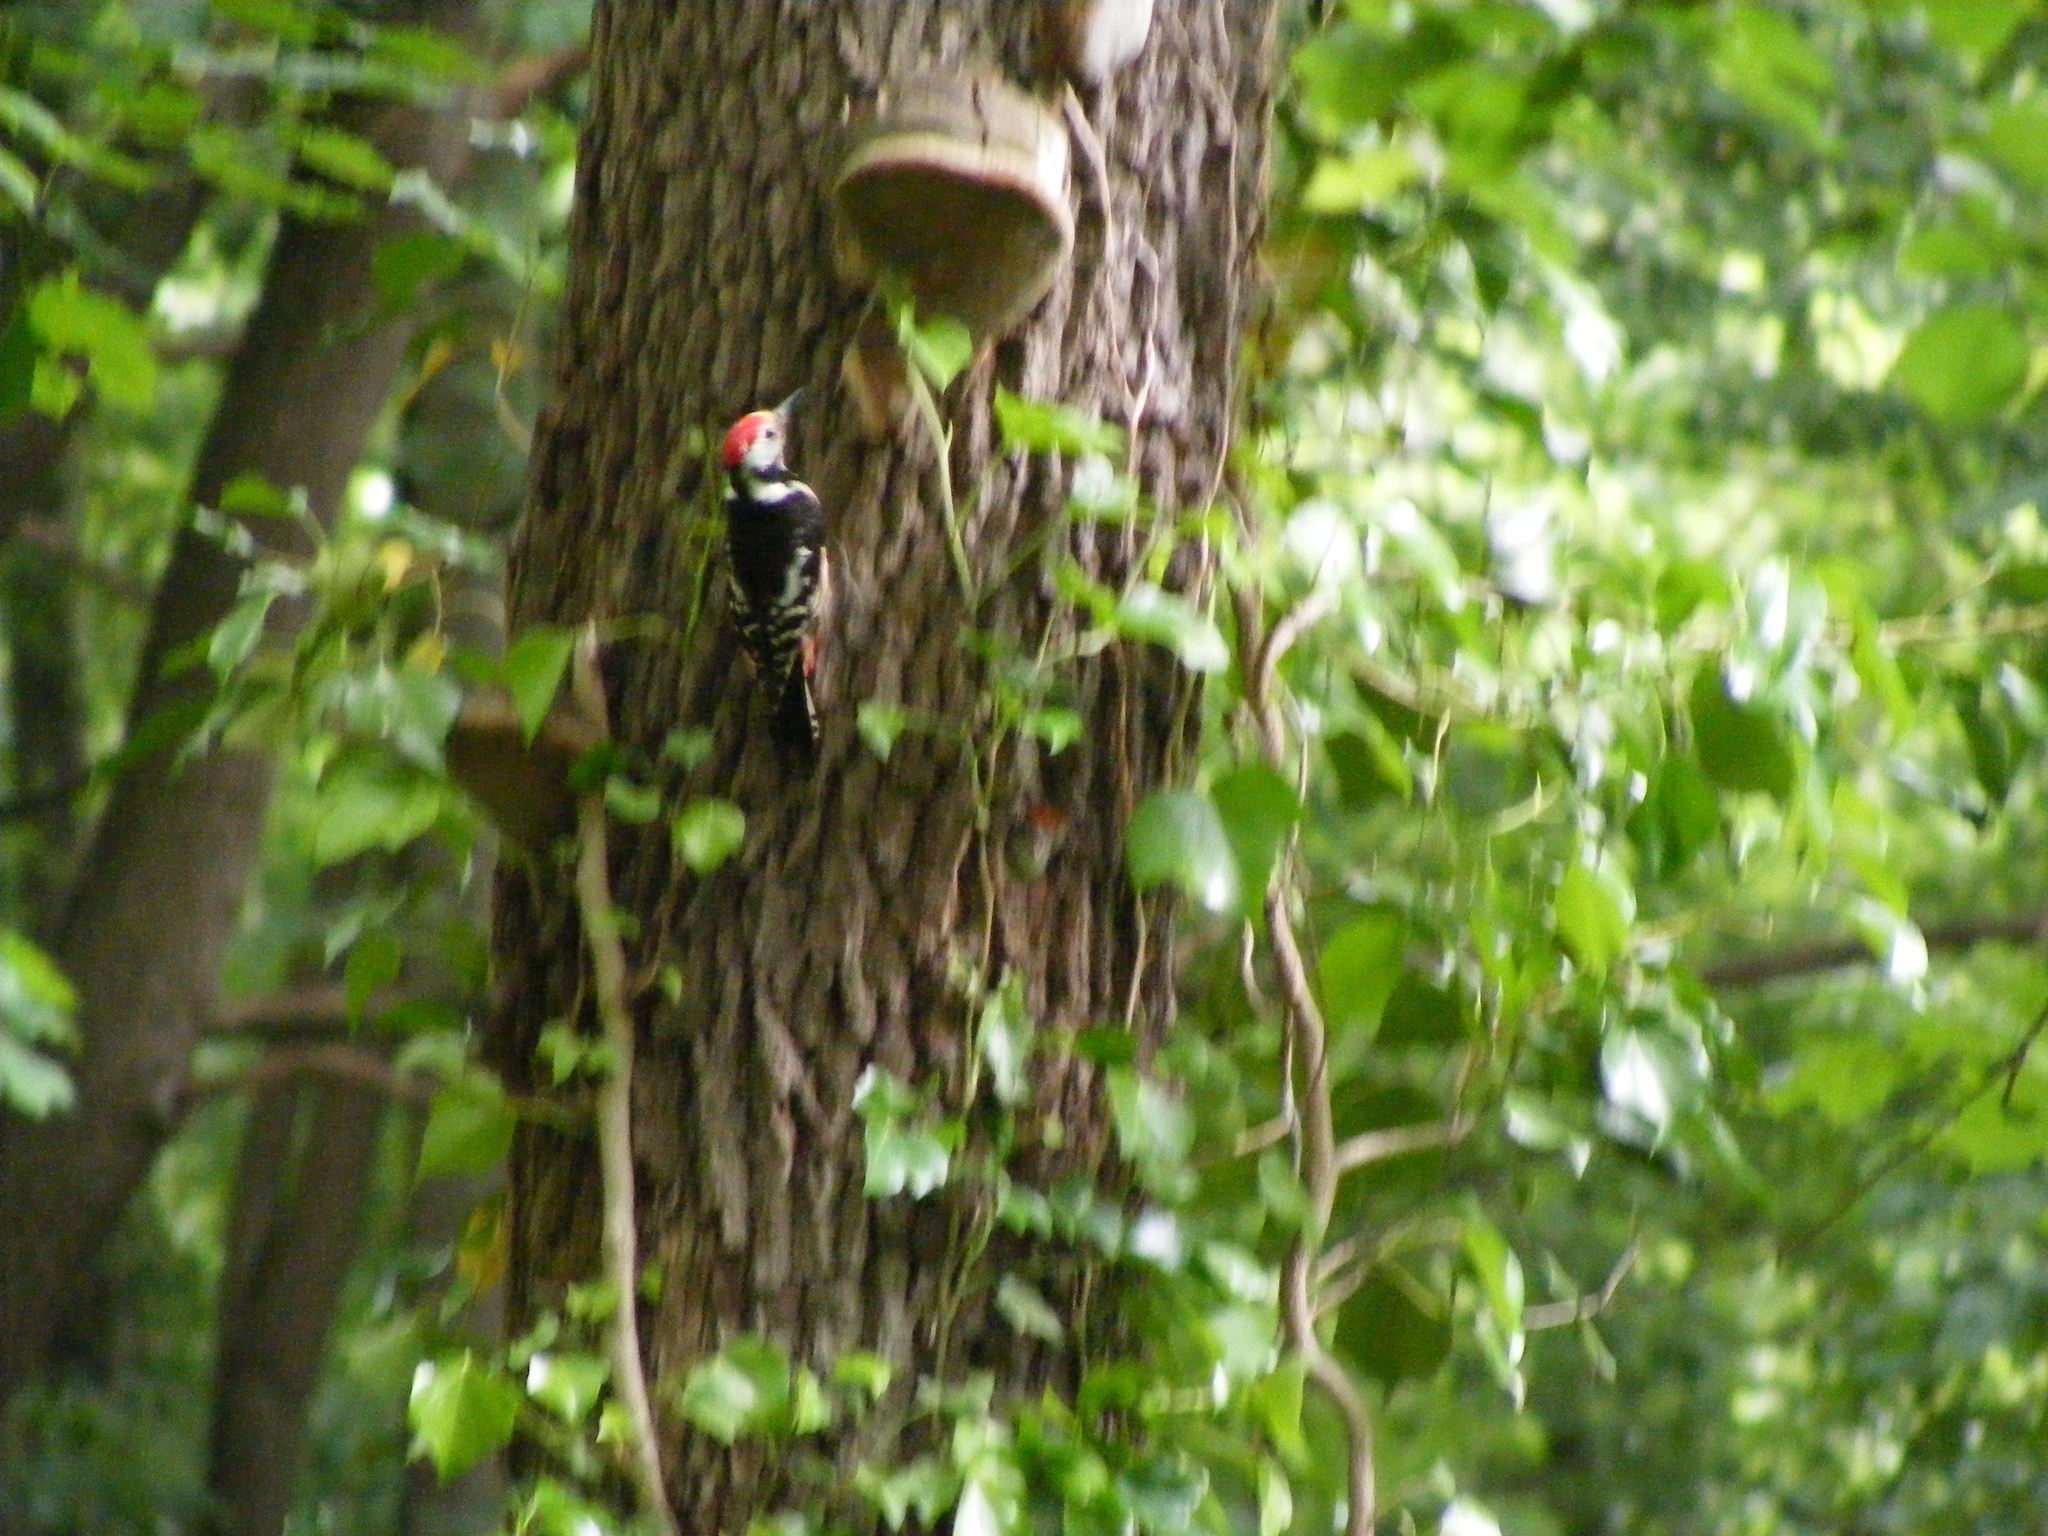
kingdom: Animalia
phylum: Chordata
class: Aves
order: Piciformes
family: Picidae
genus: Dendrocoptes
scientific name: Dendrocoptes medius
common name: Middle spotted woodpecker
